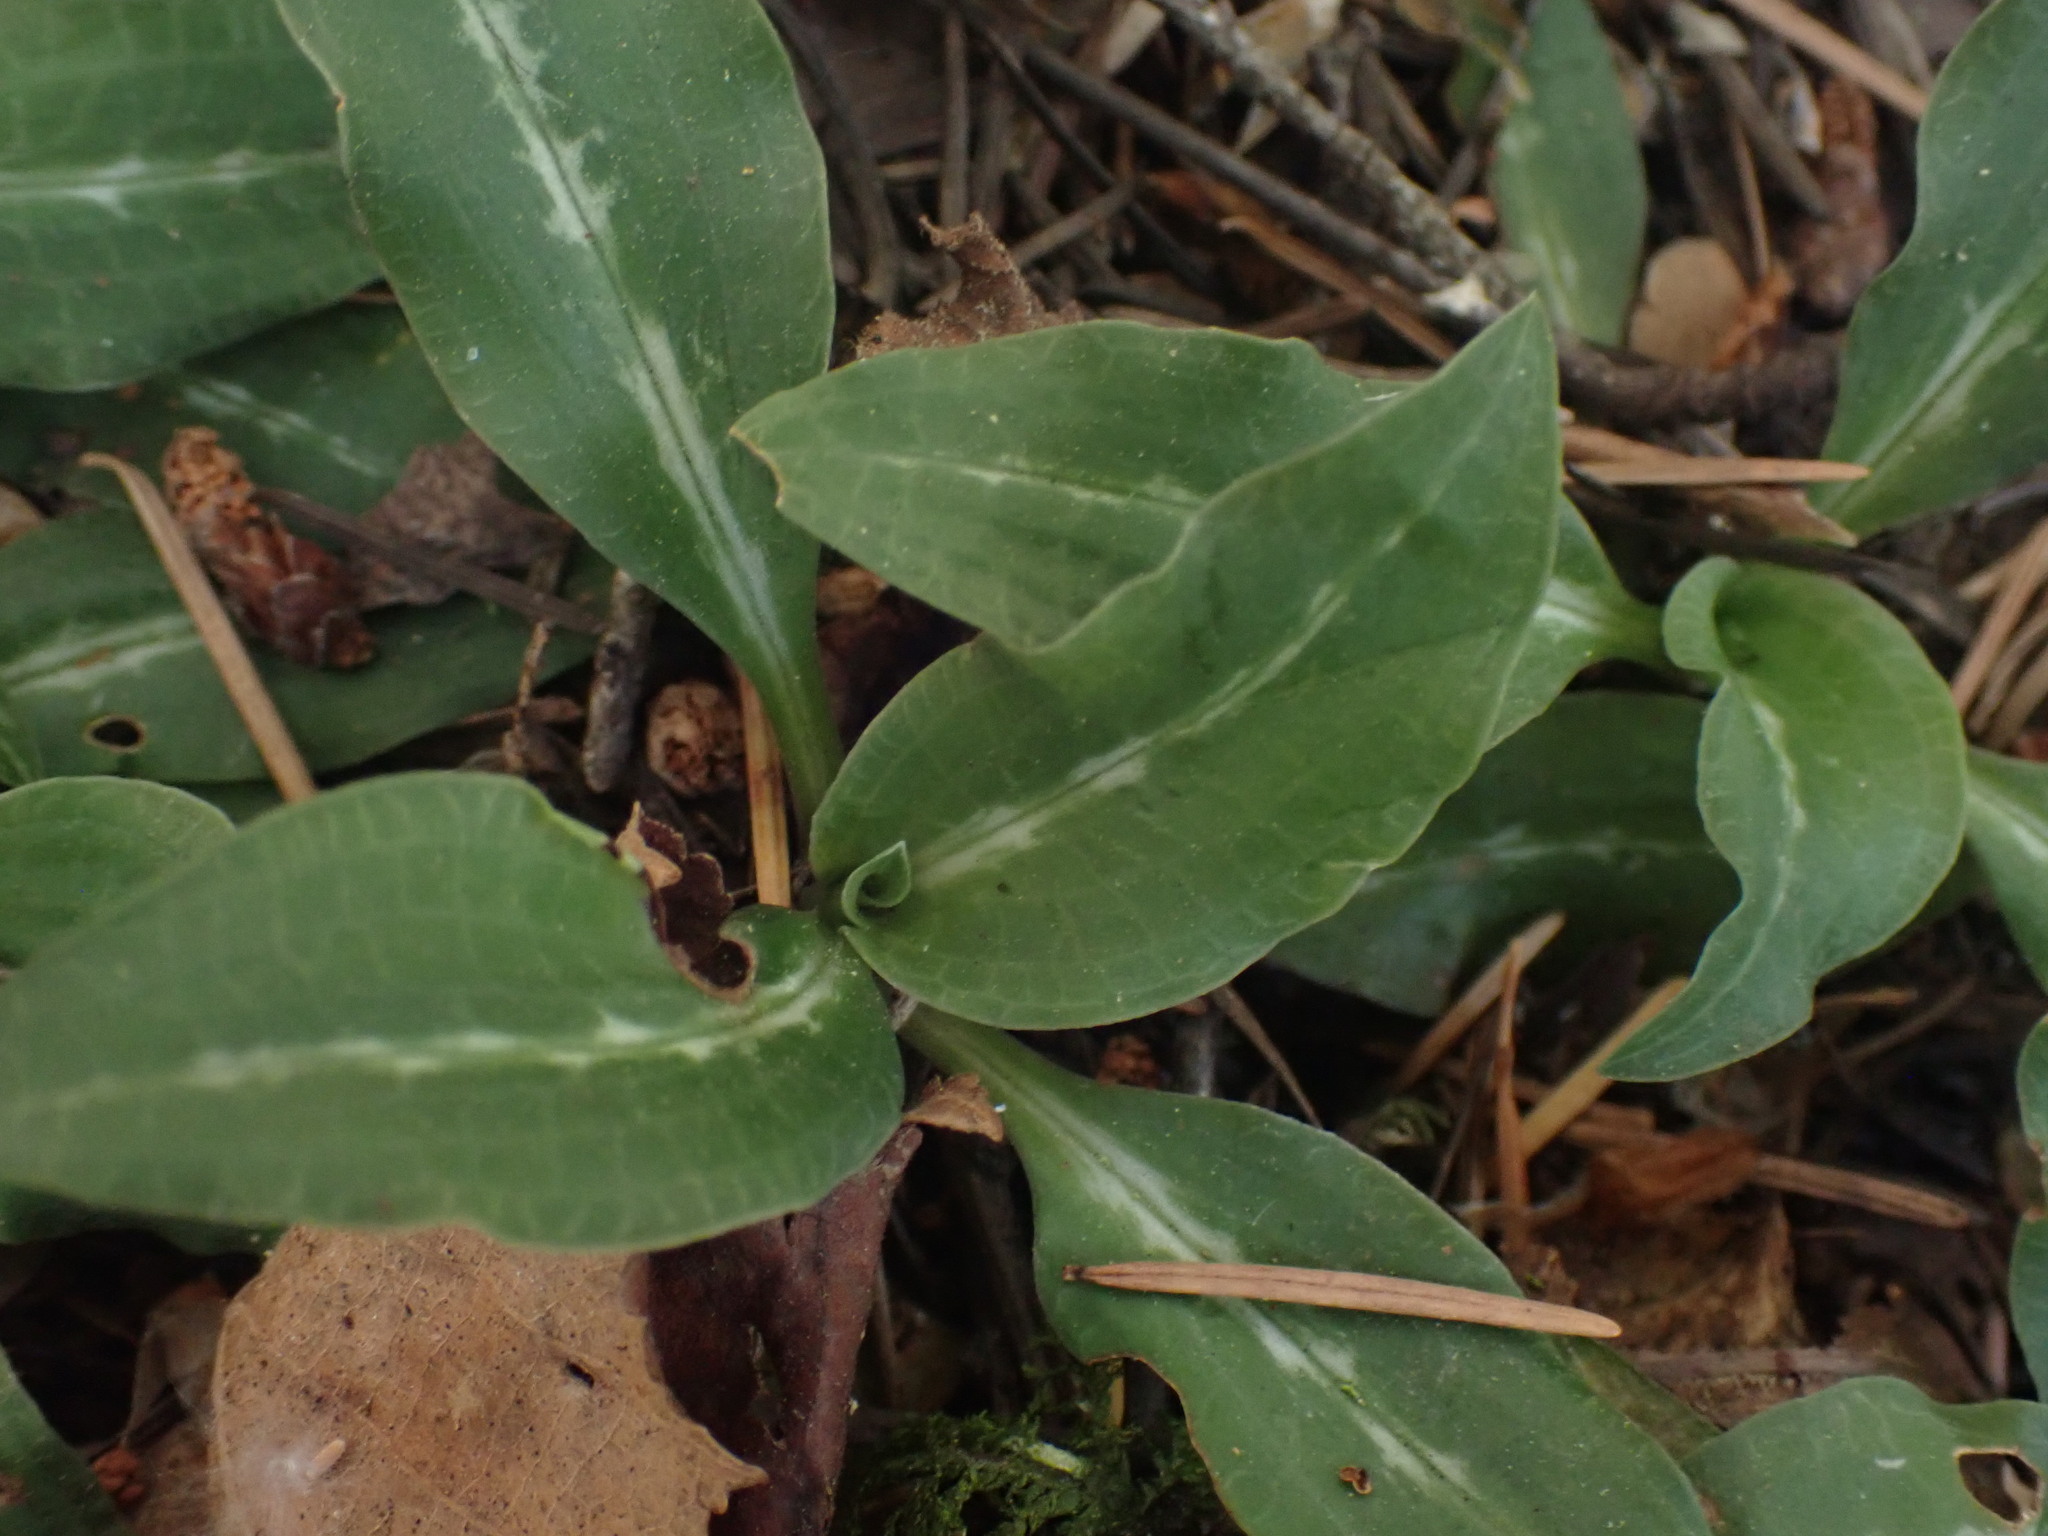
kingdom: Plantae
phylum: Tracheophyta
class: Liliopsida
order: Asparagales
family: Orchidaceae
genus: Goodyera
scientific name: Goodyera oblongifolia
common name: Giant rattlesnake-plantain
